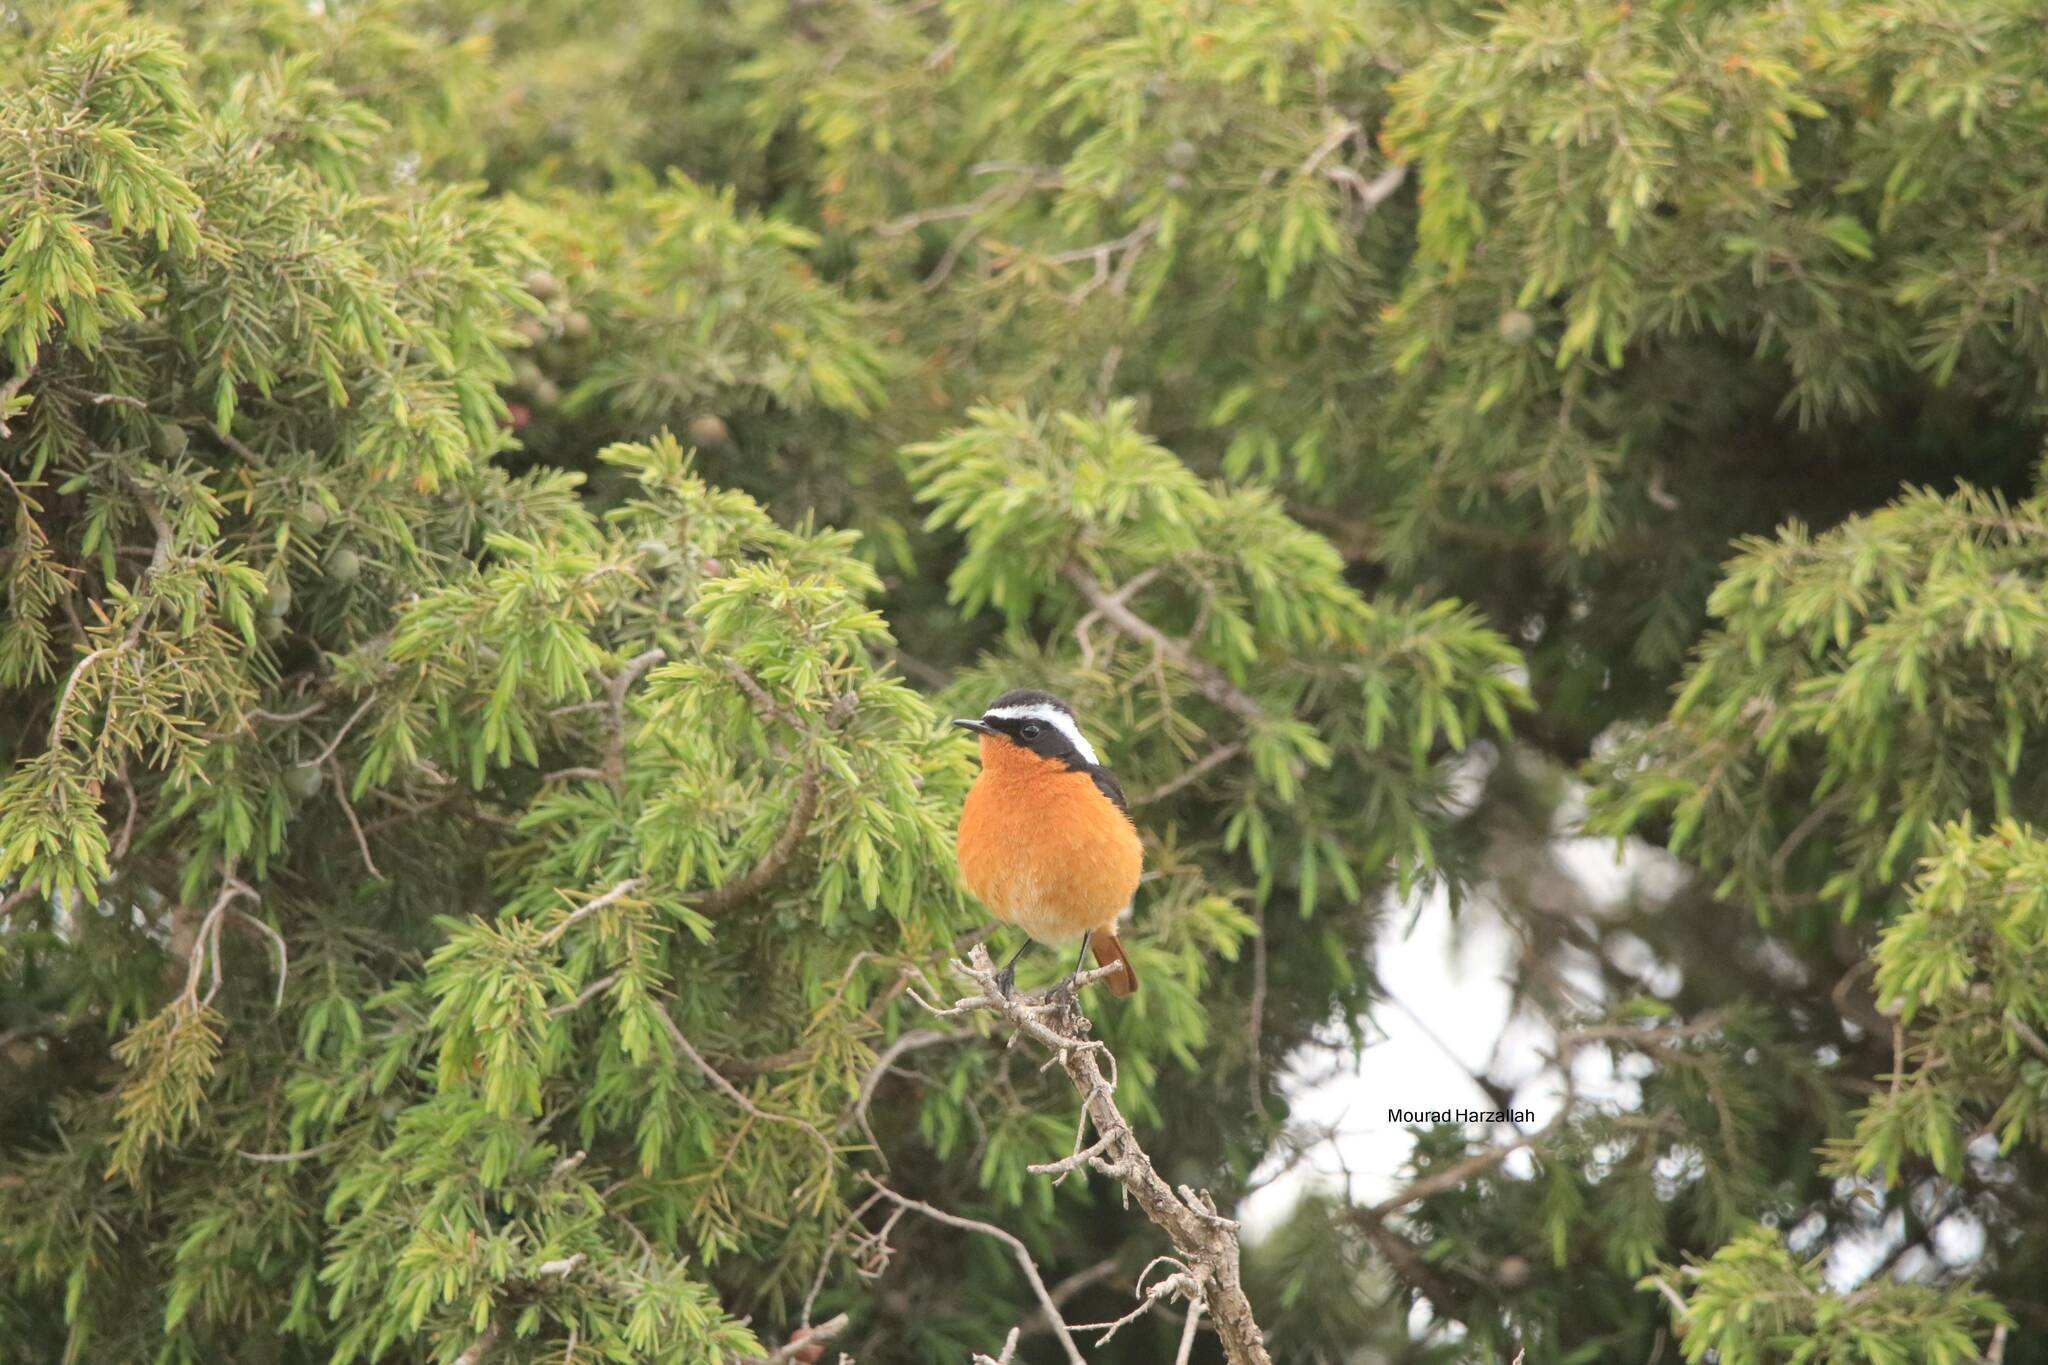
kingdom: Animalia
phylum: Chordata
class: Aves
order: Passeriformes
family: Muscicapidae
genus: Phoenicurus
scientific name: Phoenicurus moussieri
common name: Moussier's redstart
